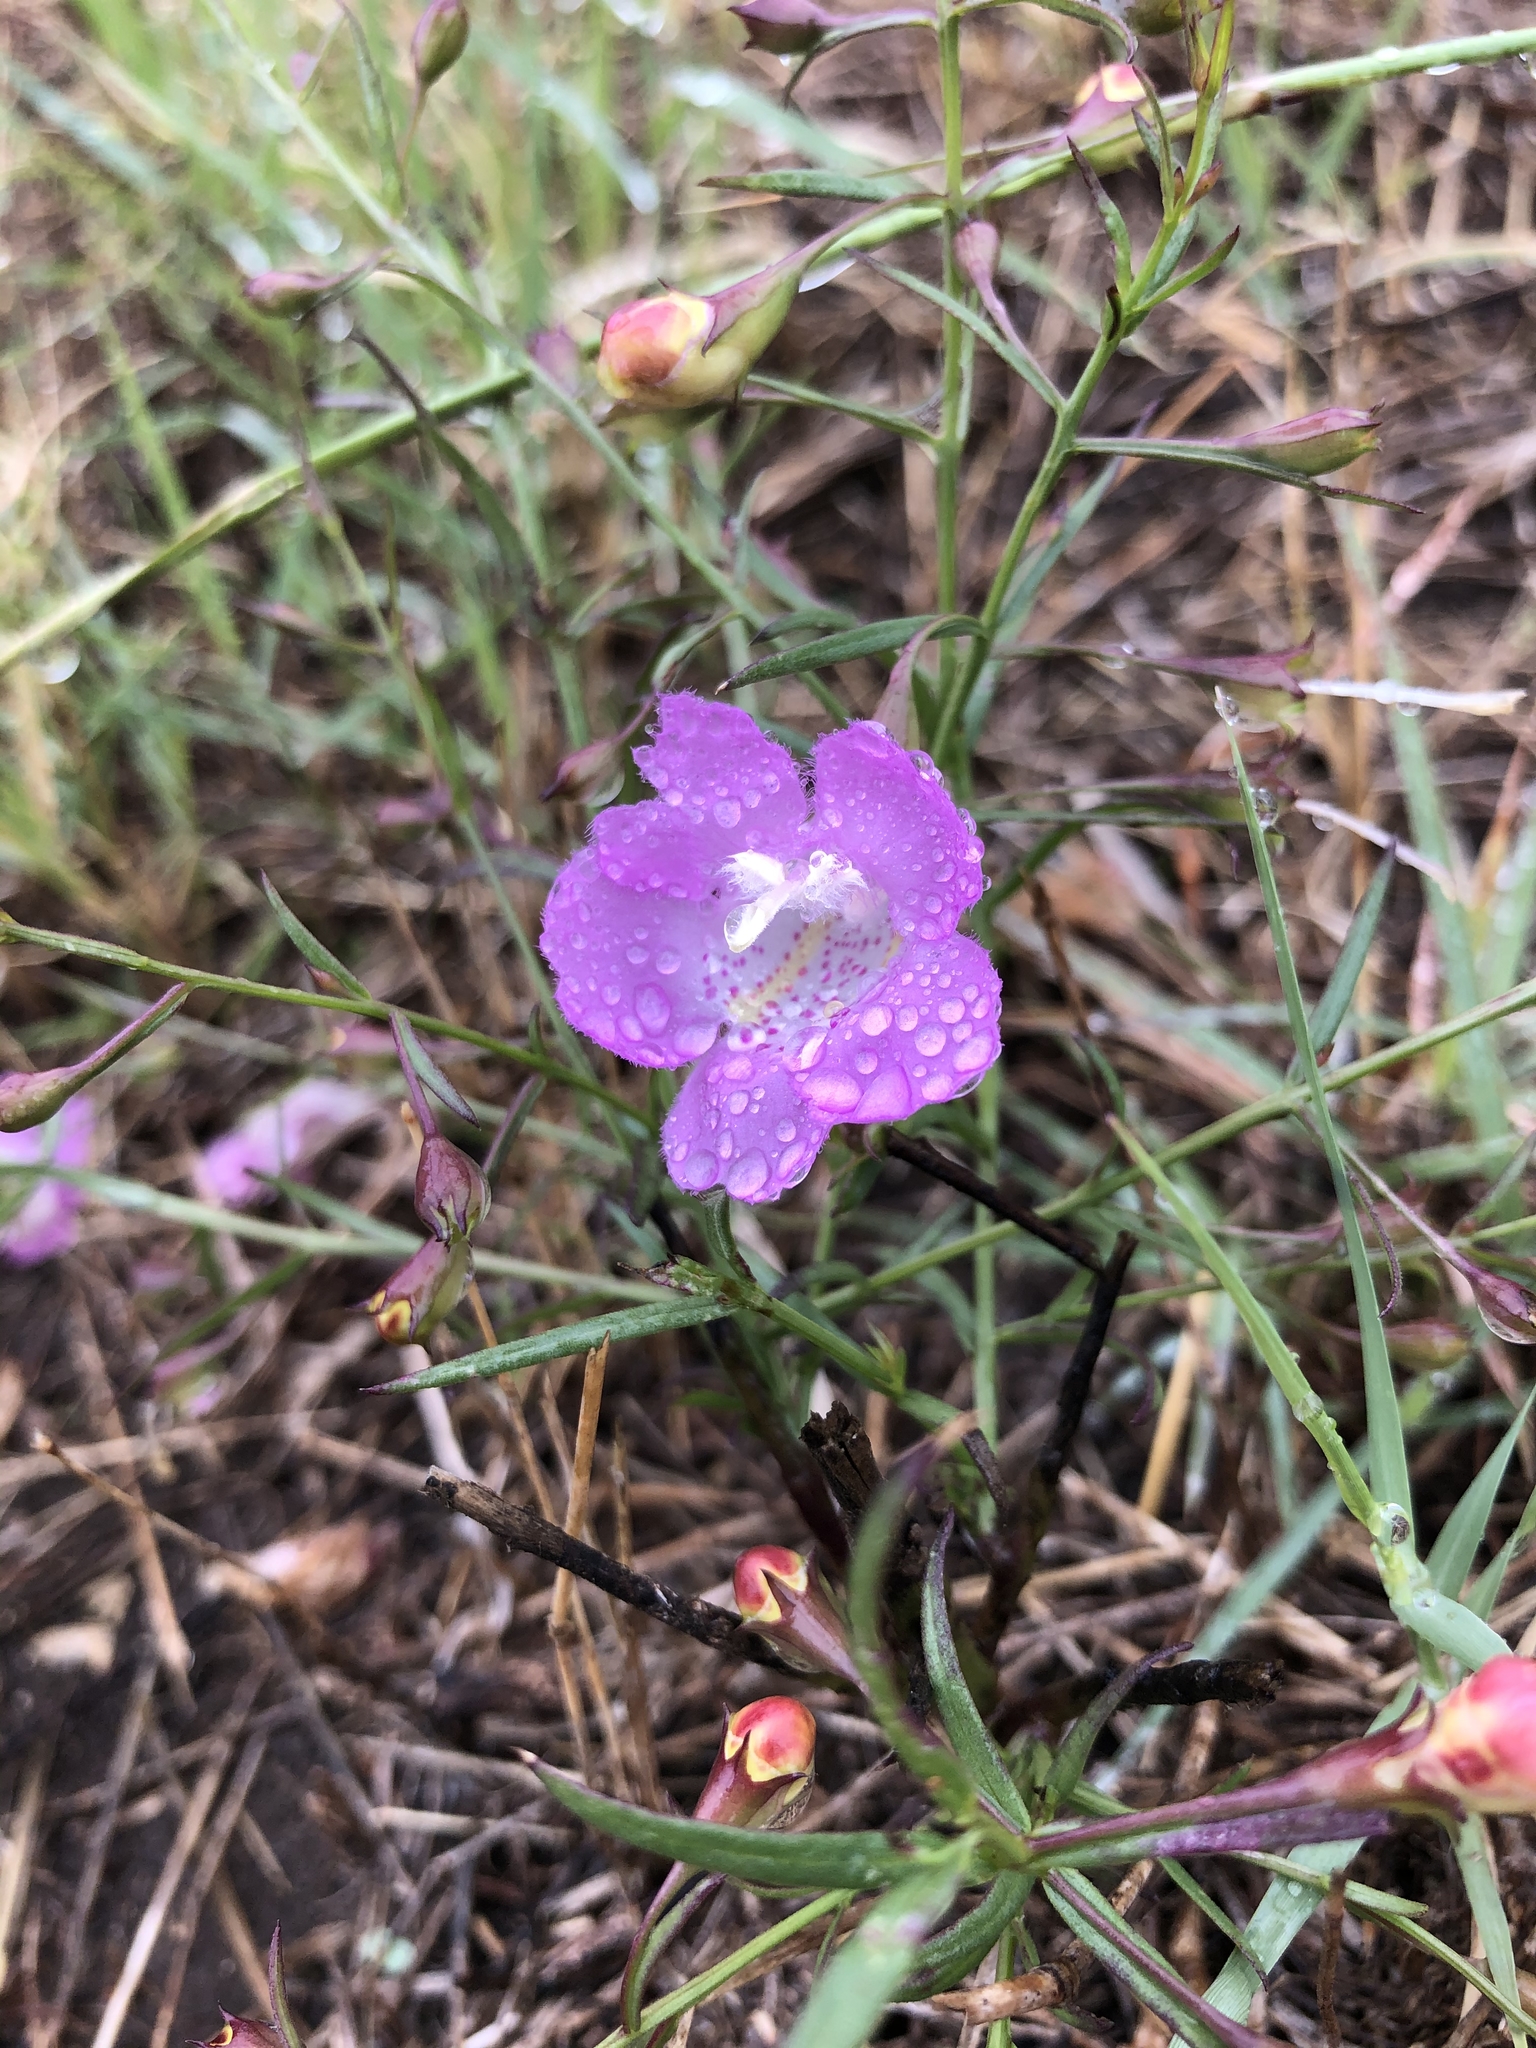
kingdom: Plantae
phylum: Tracheophyta
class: Magnoliopsida
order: Lamiales
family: Orobanchaceae
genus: Agalinis
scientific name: Agalinis heterophylla
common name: Prairie agalinis
